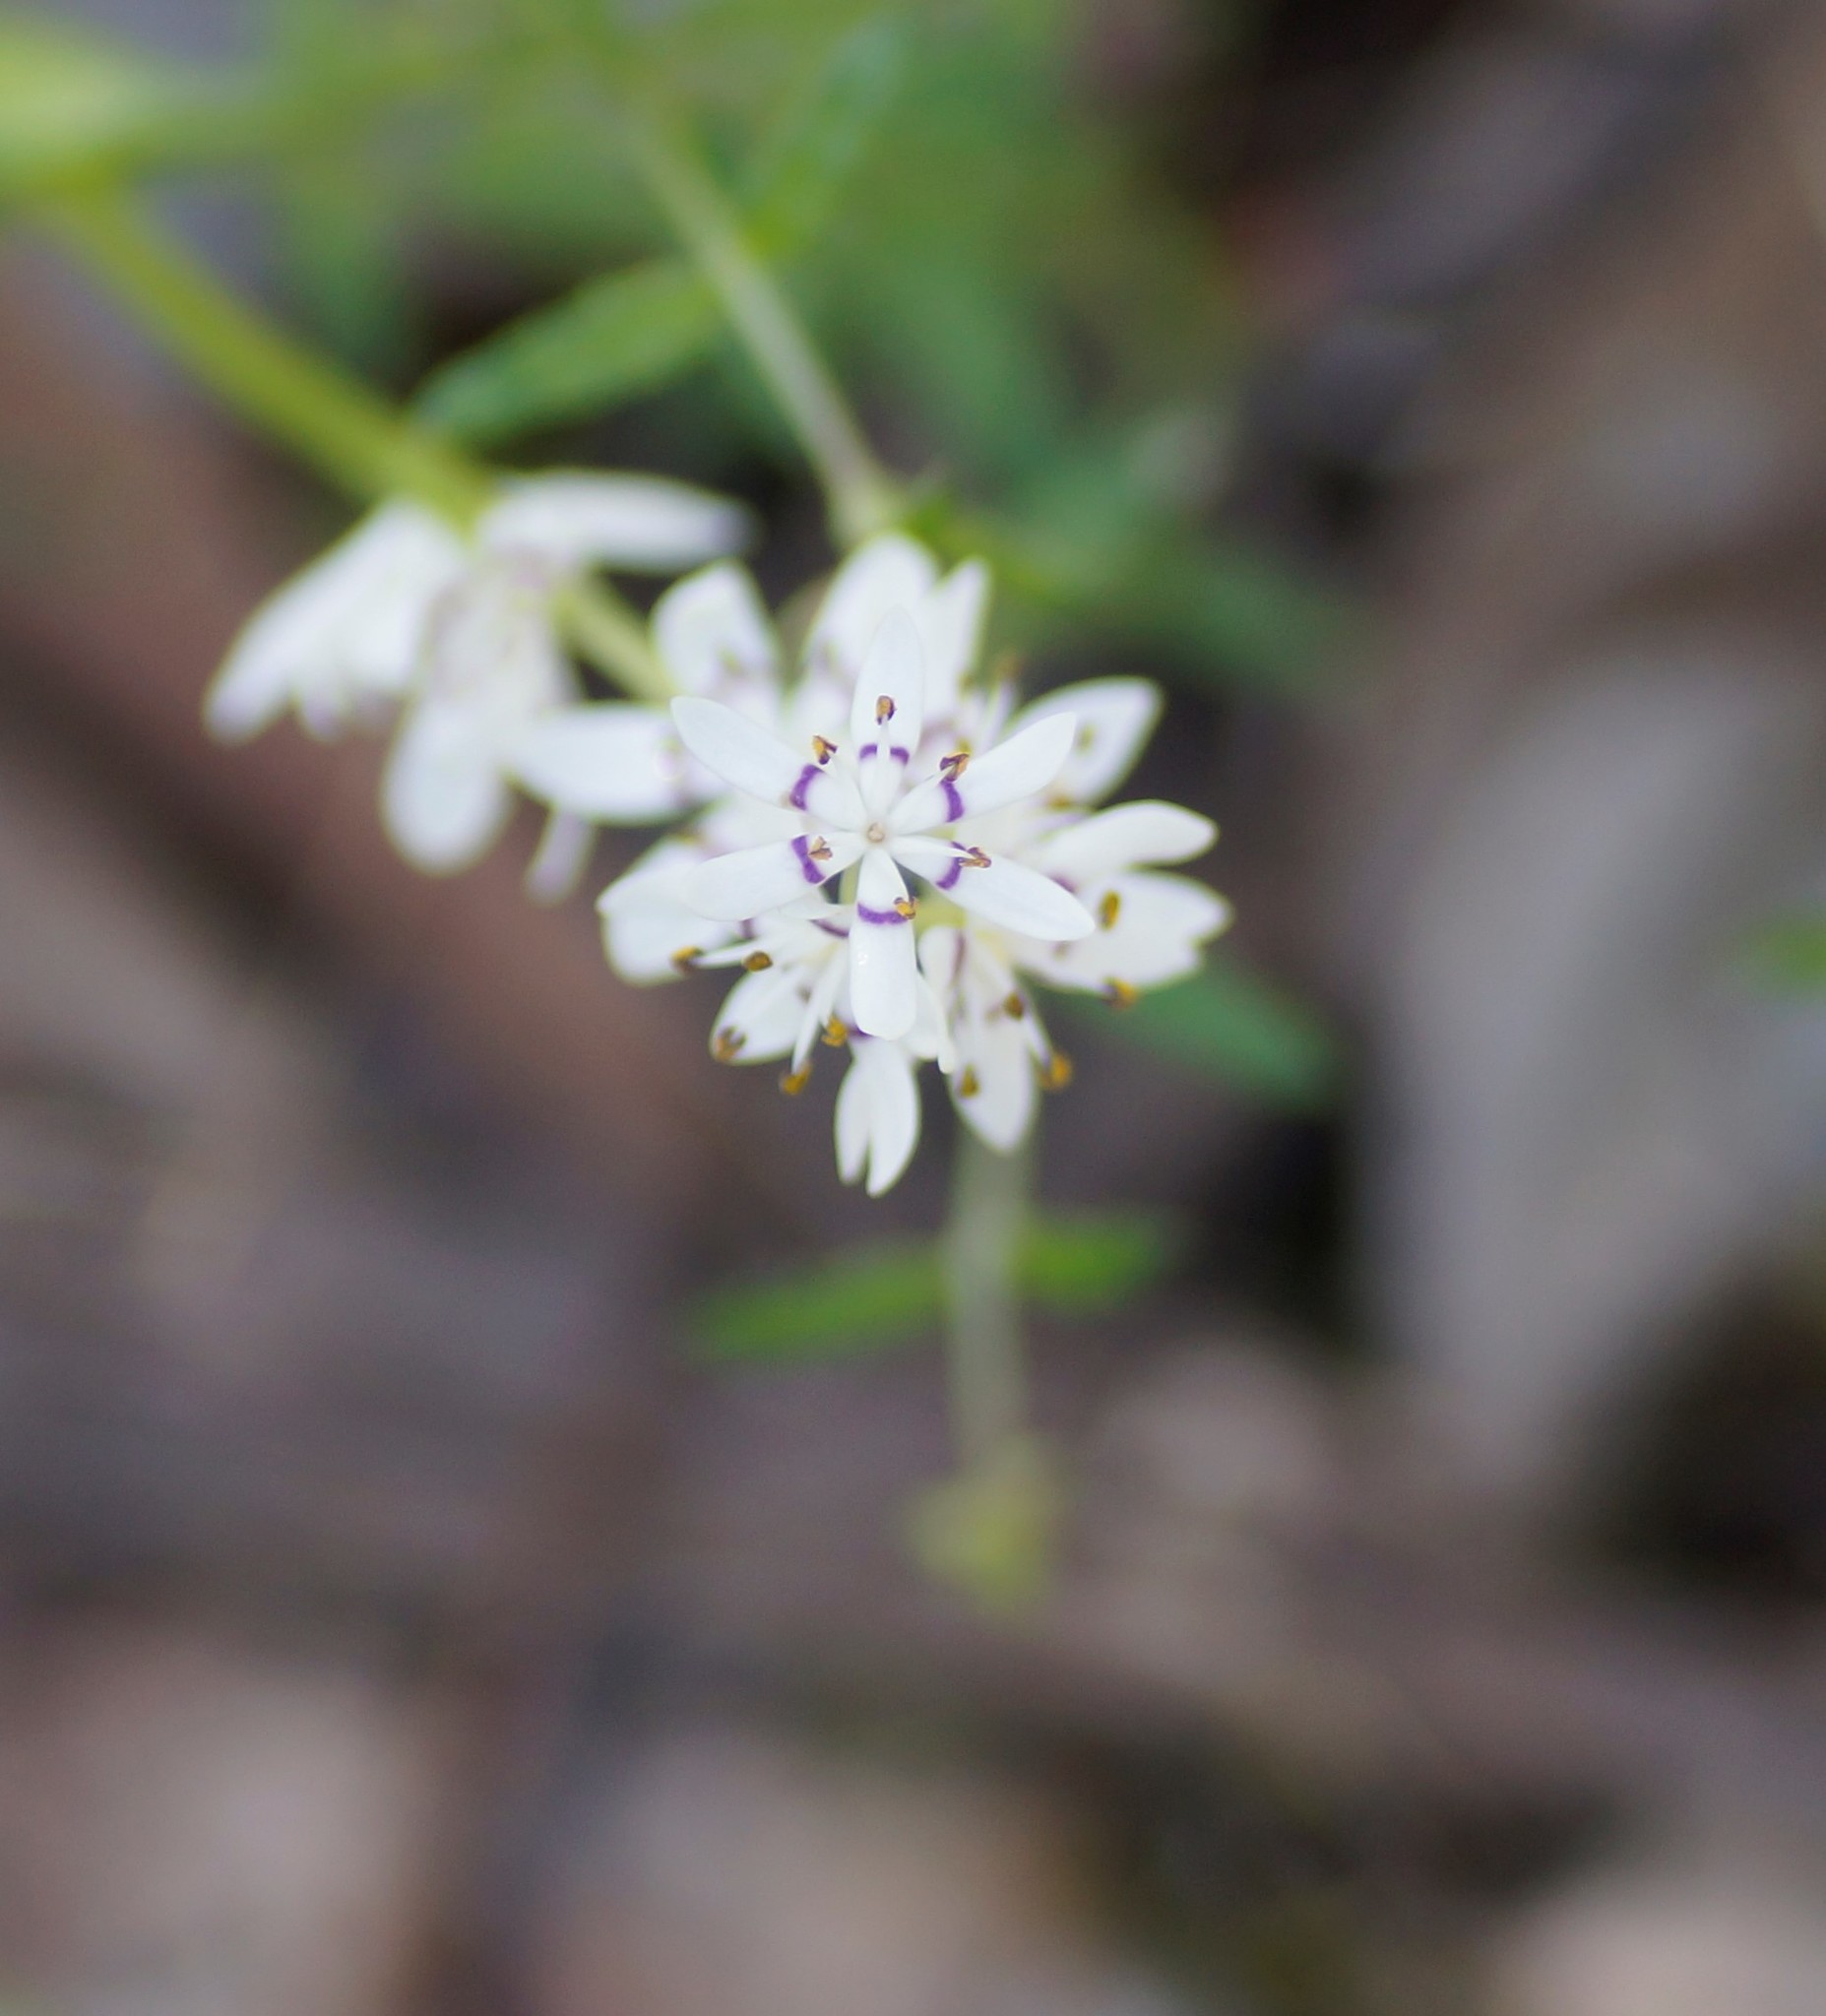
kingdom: Plantae
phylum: Tracheophyta
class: Liliopsida
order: Liliales
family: Colchicaceae
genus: Wurmbea
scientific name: Wurmbea dioica
